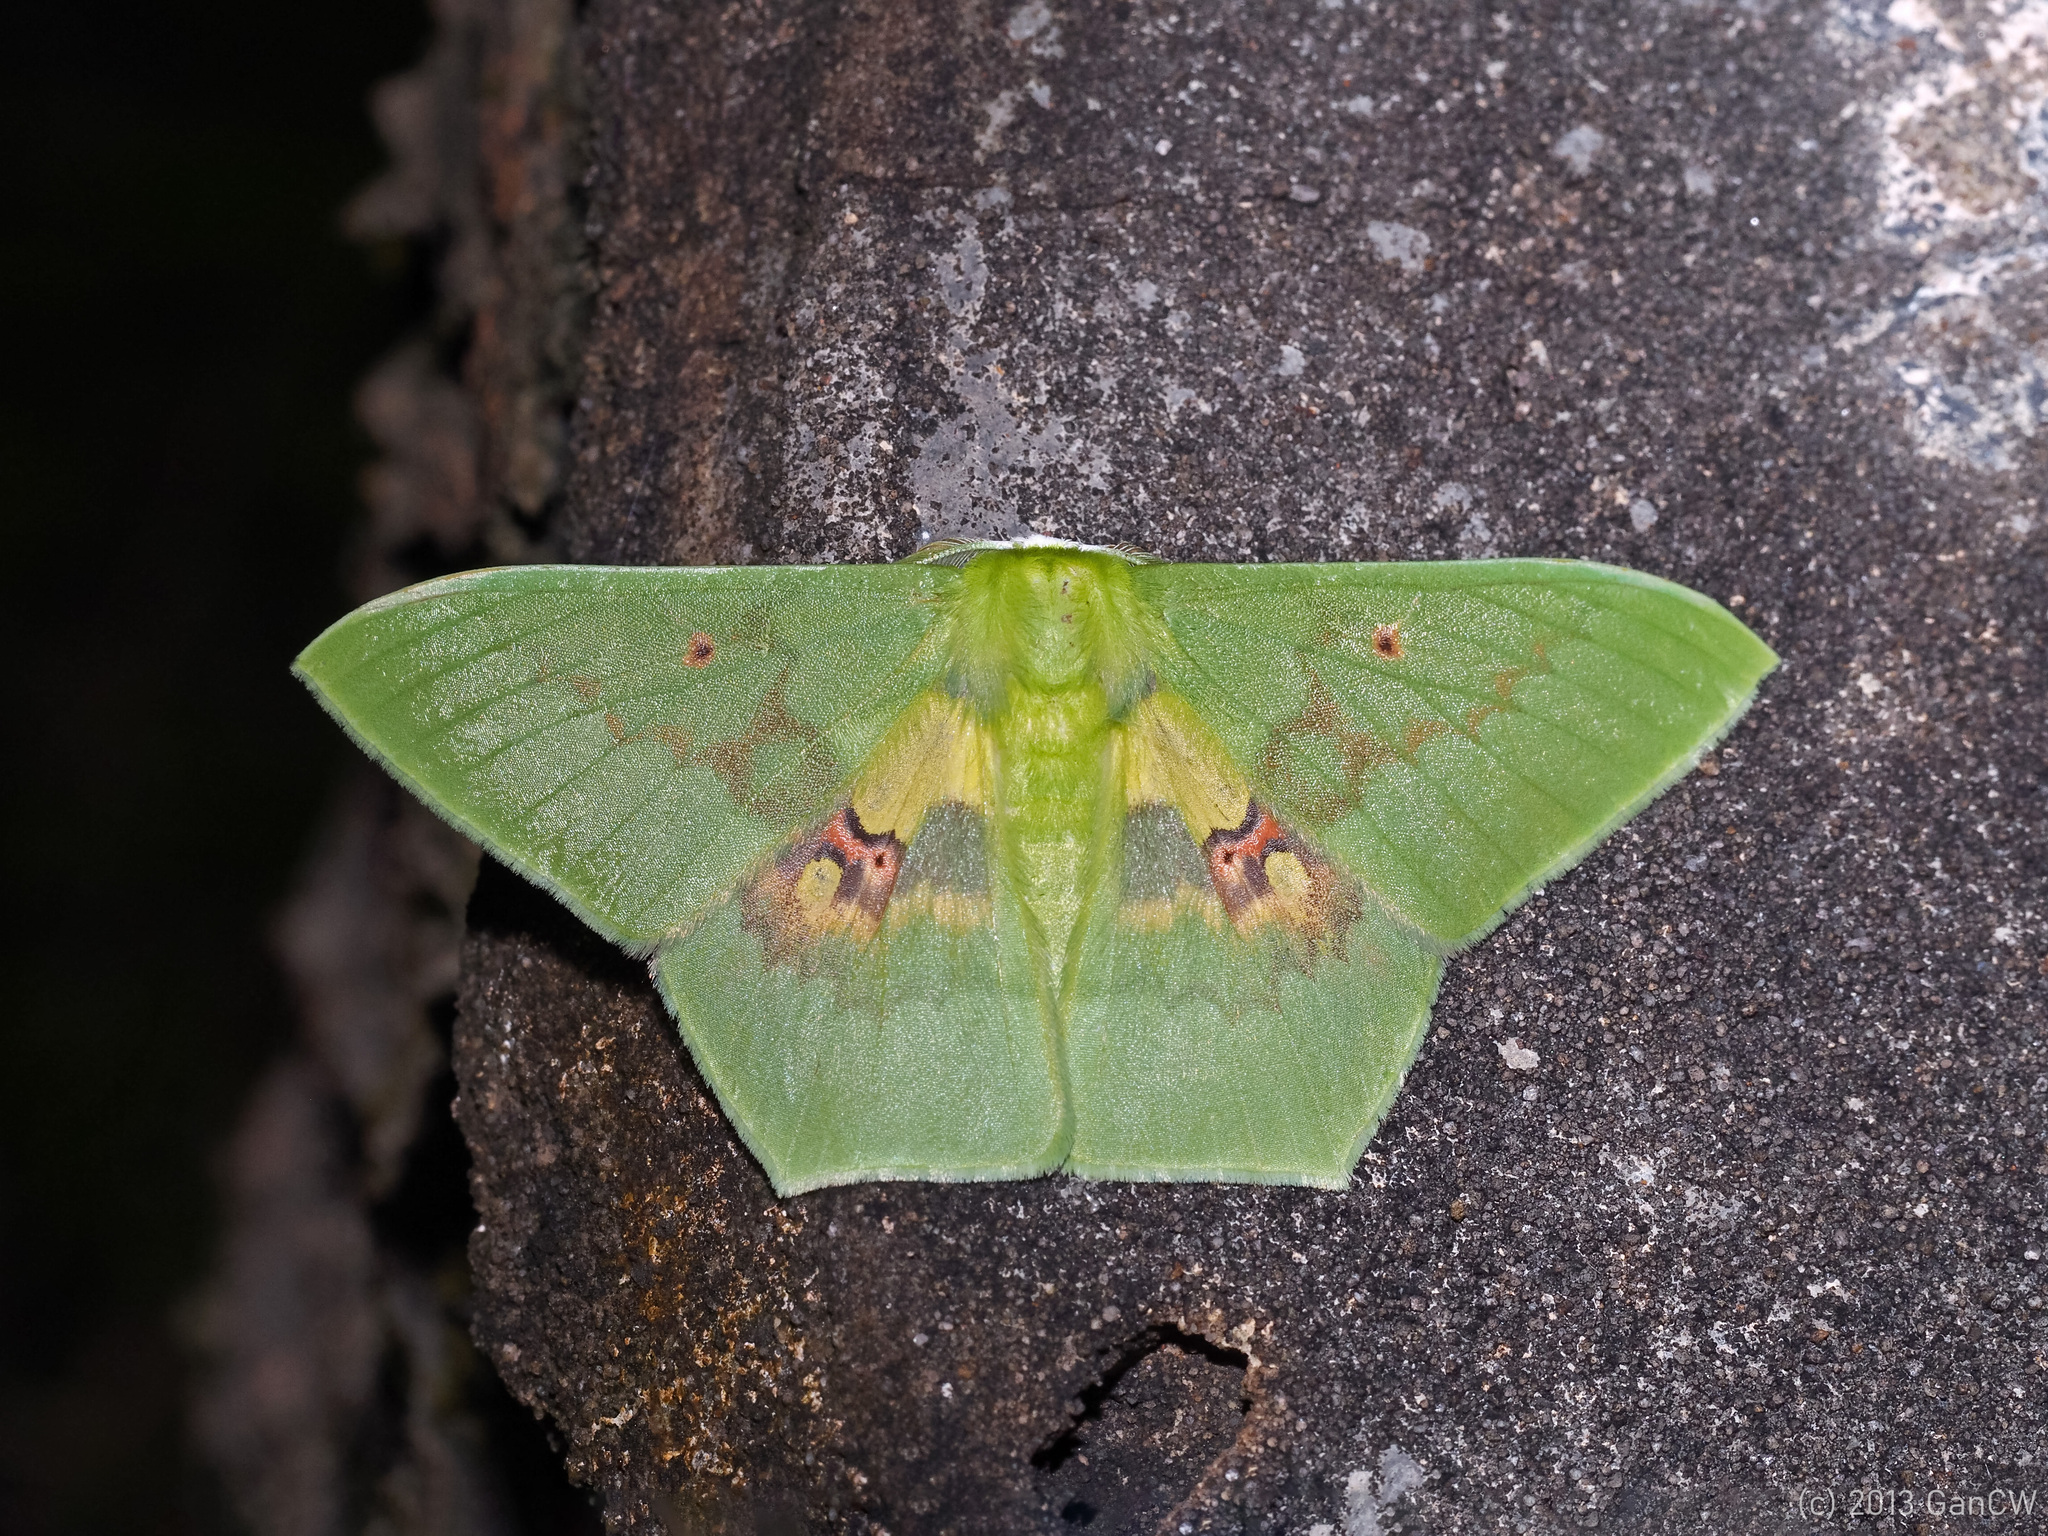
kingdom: Animalia
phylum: Arthropoda
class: Insecta
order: Lepidoptera
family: Geometridae
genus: Aporandria
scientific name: Aporandria specularia
